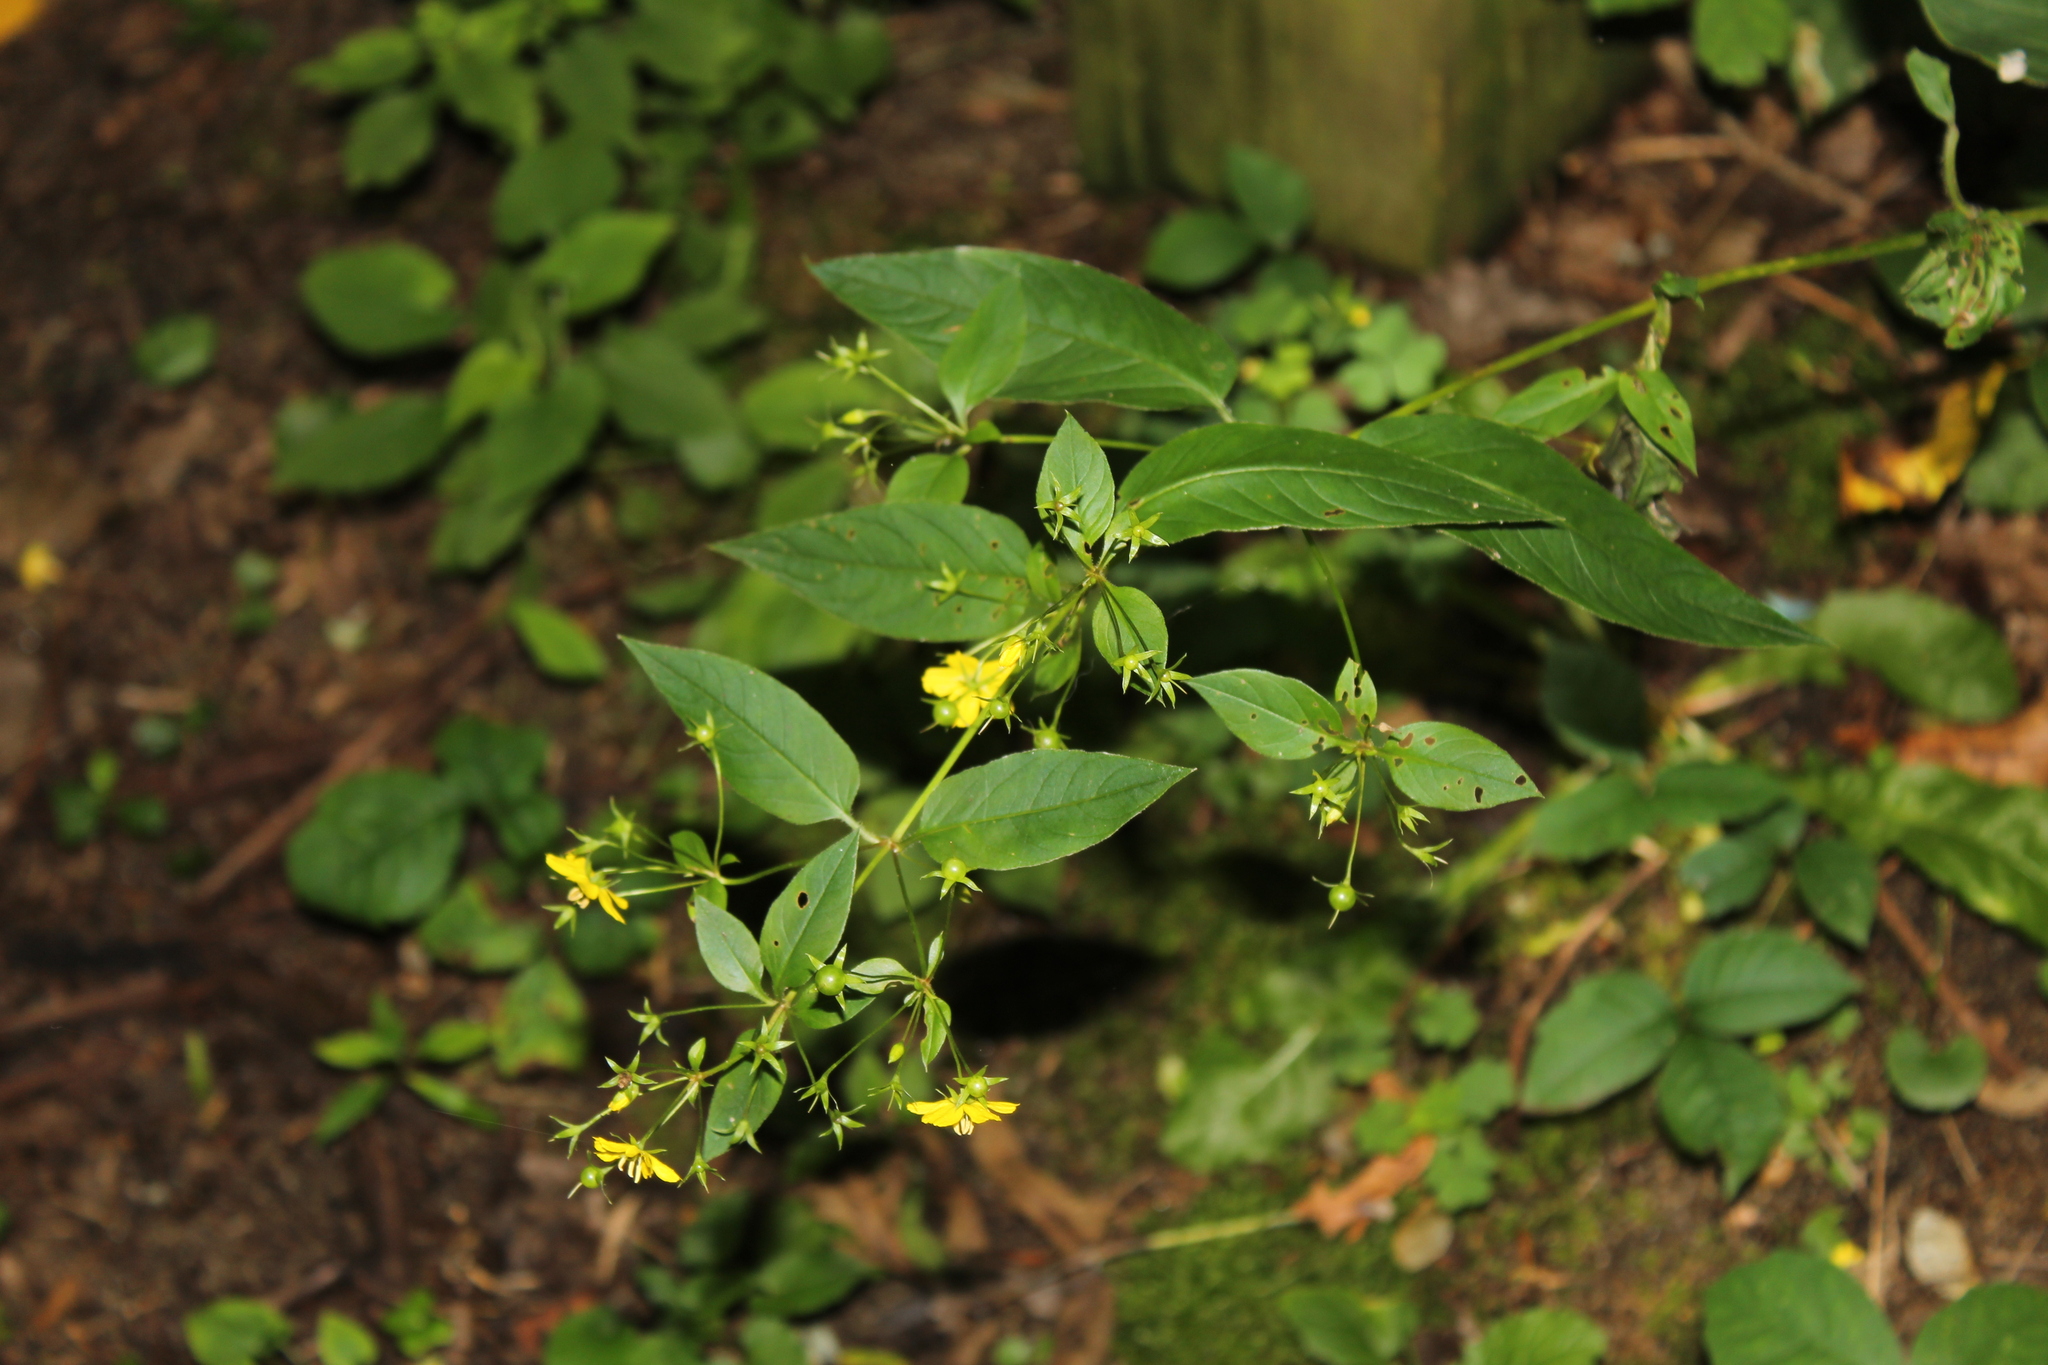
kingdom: Plantae
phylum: Tracheophyta
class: Magnoliopsida
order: Ericales
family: Primulaceae
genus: Lysimachia
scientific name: Lysimachia ciliata
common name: Fringed loosestrife
